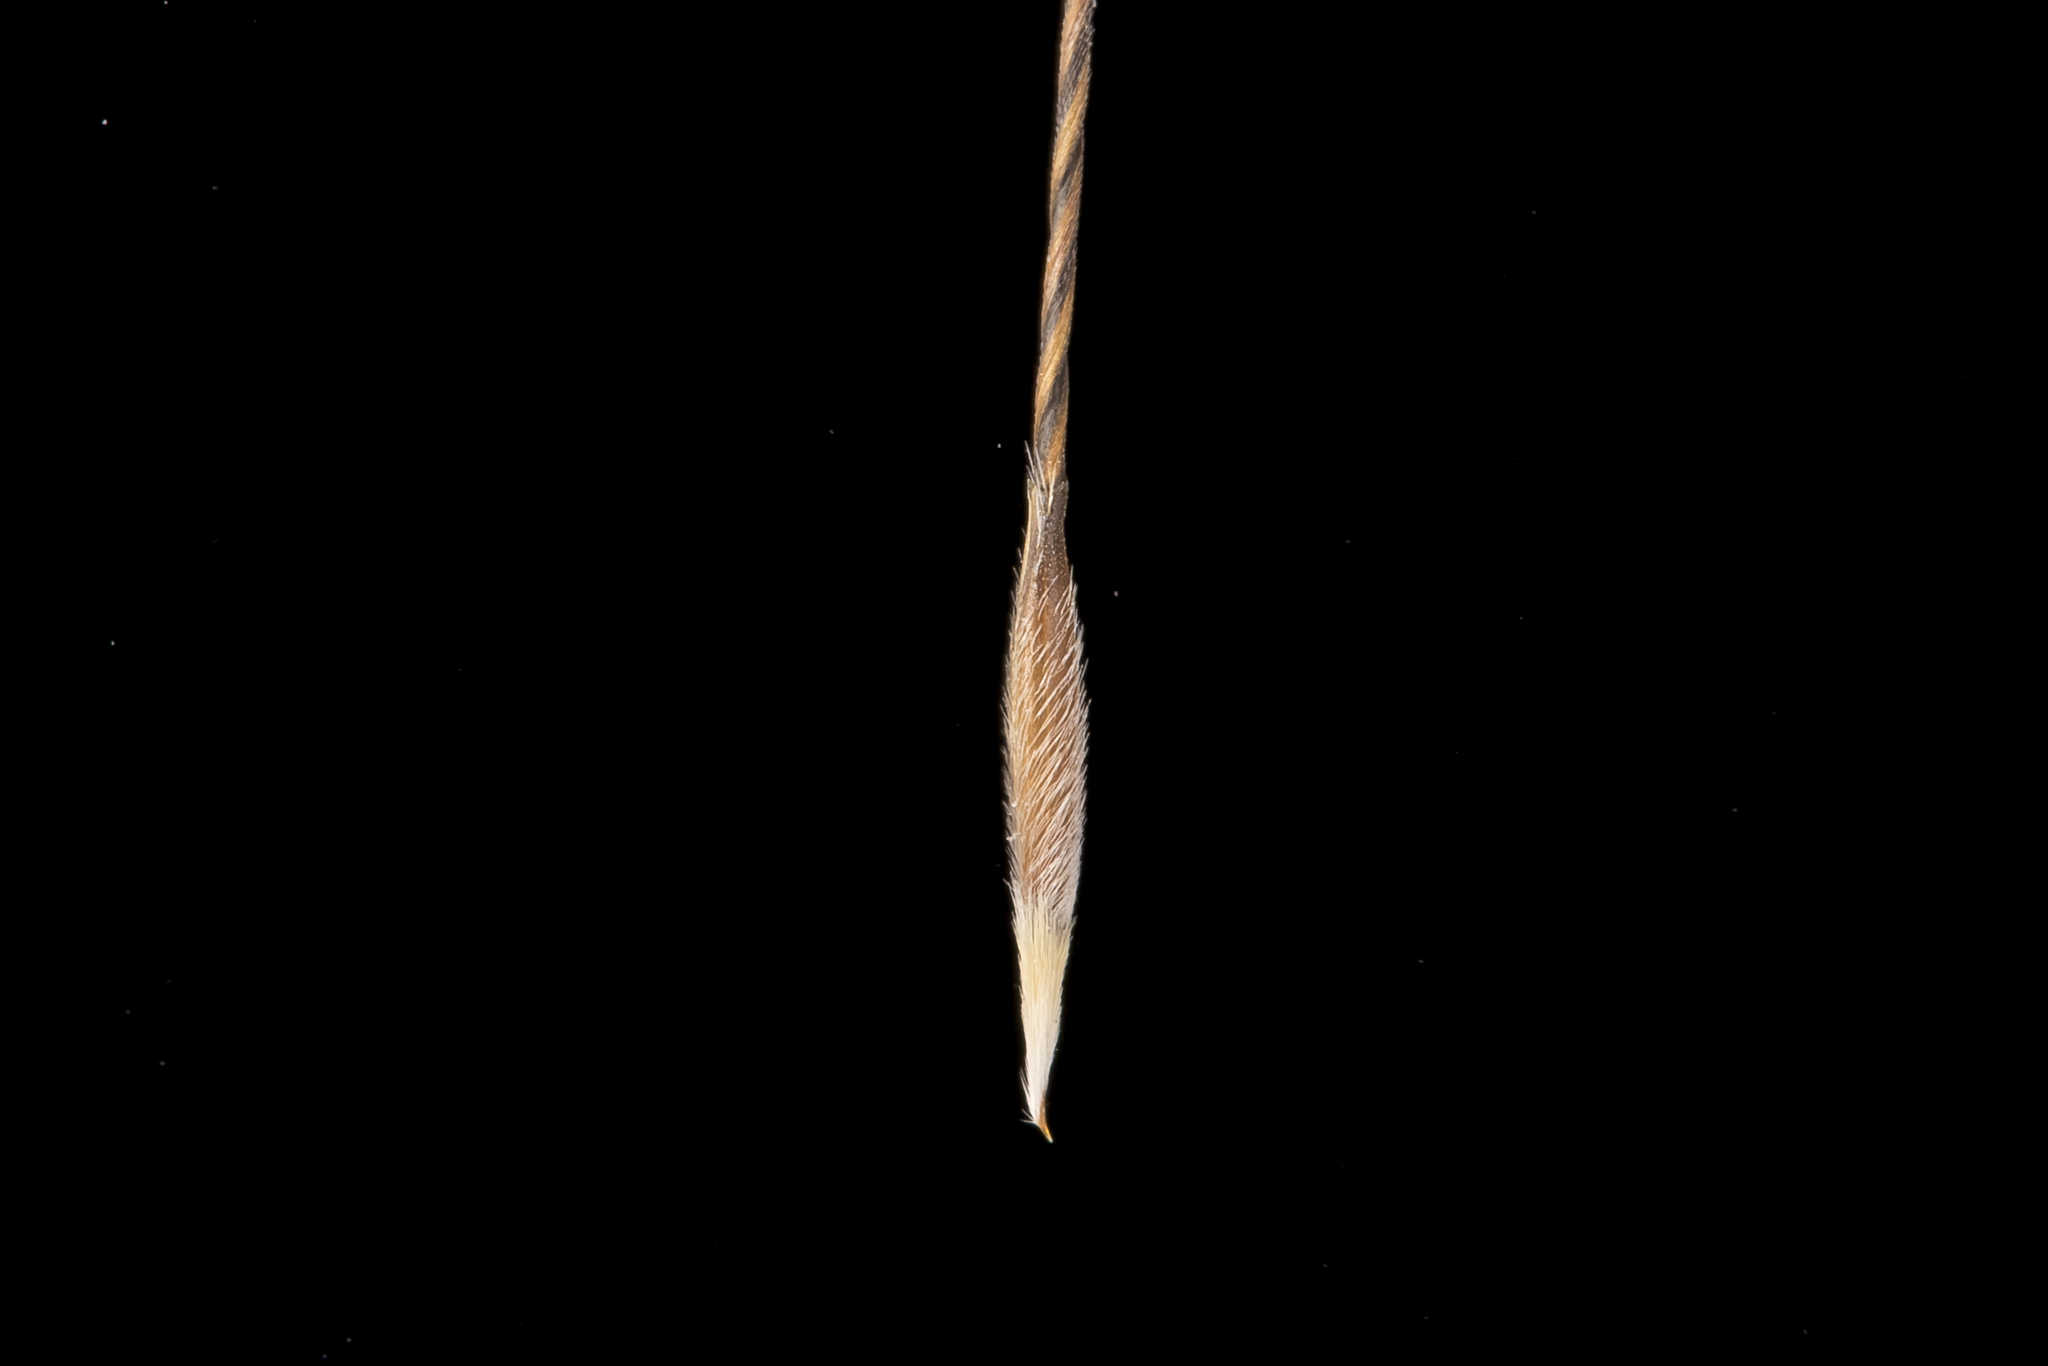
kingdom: Plantae
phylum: Tracheophyta
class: Liliopsida
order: Poales
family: Poaceae
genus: Austrostipa
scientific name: Austrostipa scabra
